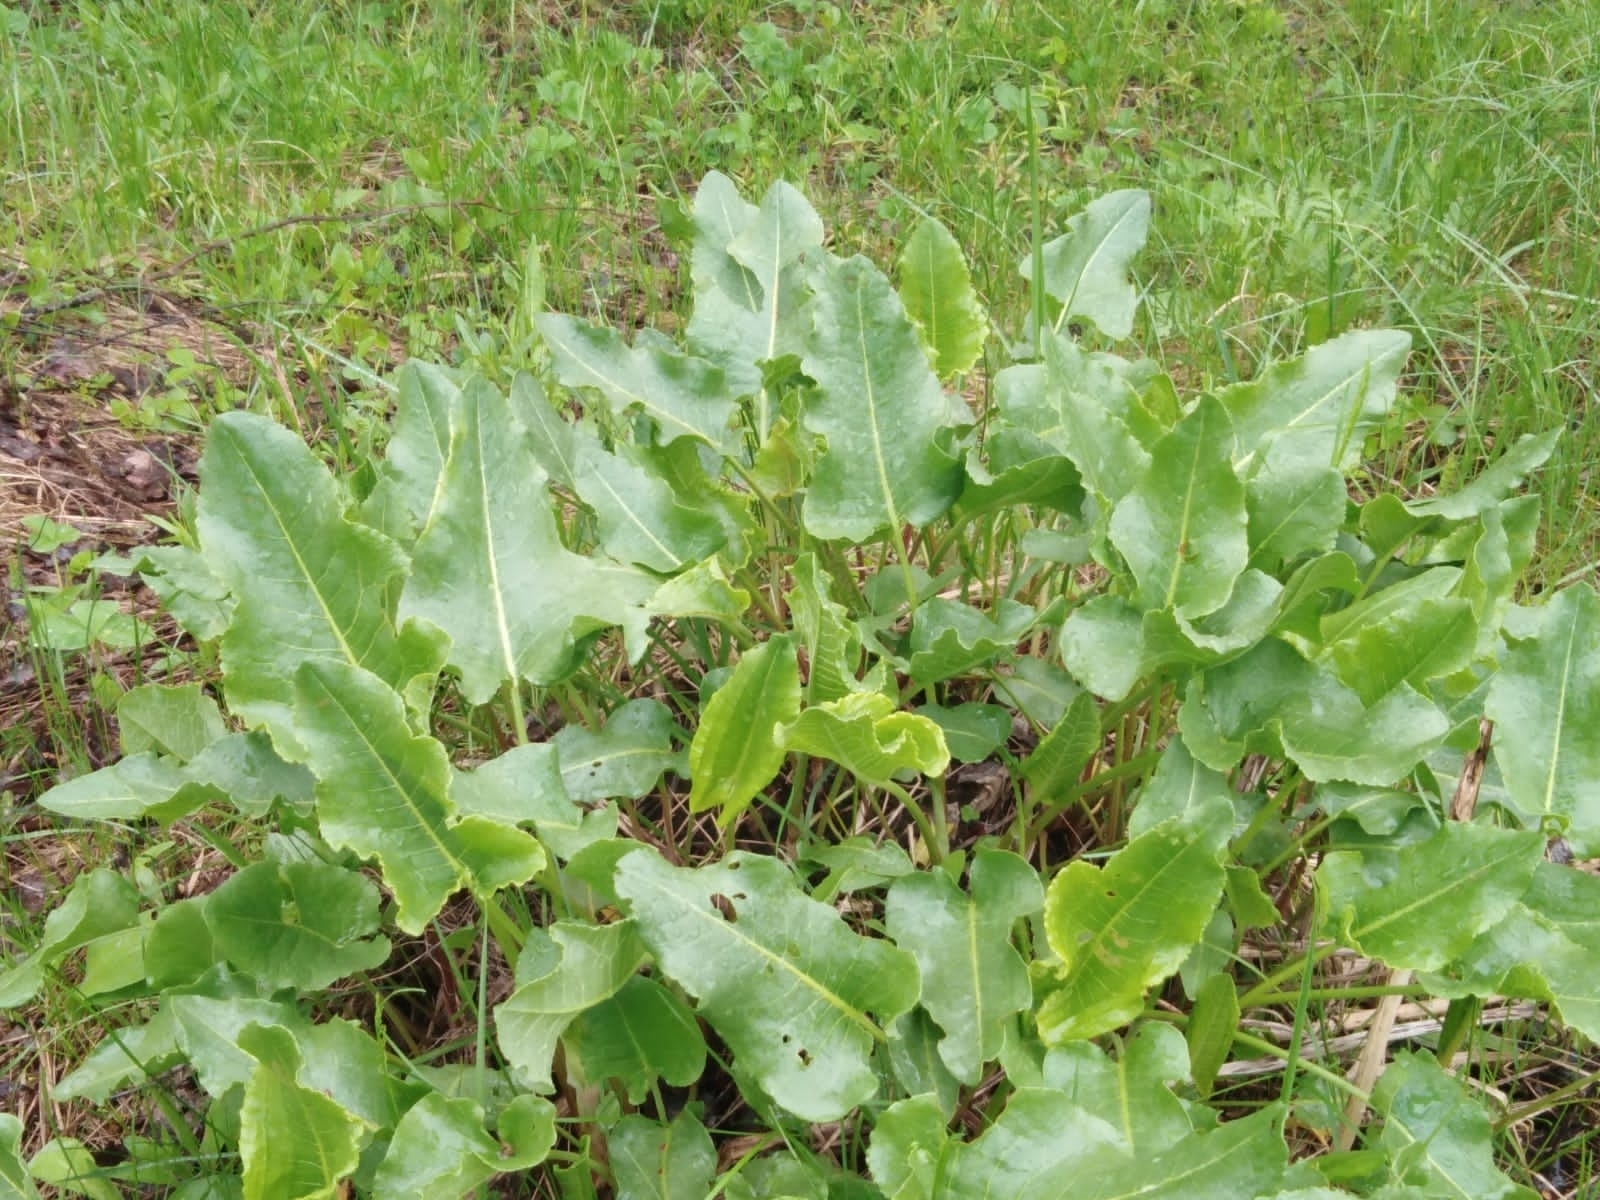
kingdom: Plantae
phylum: Tracheophyta
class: Magnoliopsida
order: Caryophyllales
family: Polygonaceae
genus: Rumex
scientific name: Rumex confertus
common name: Russian dock
